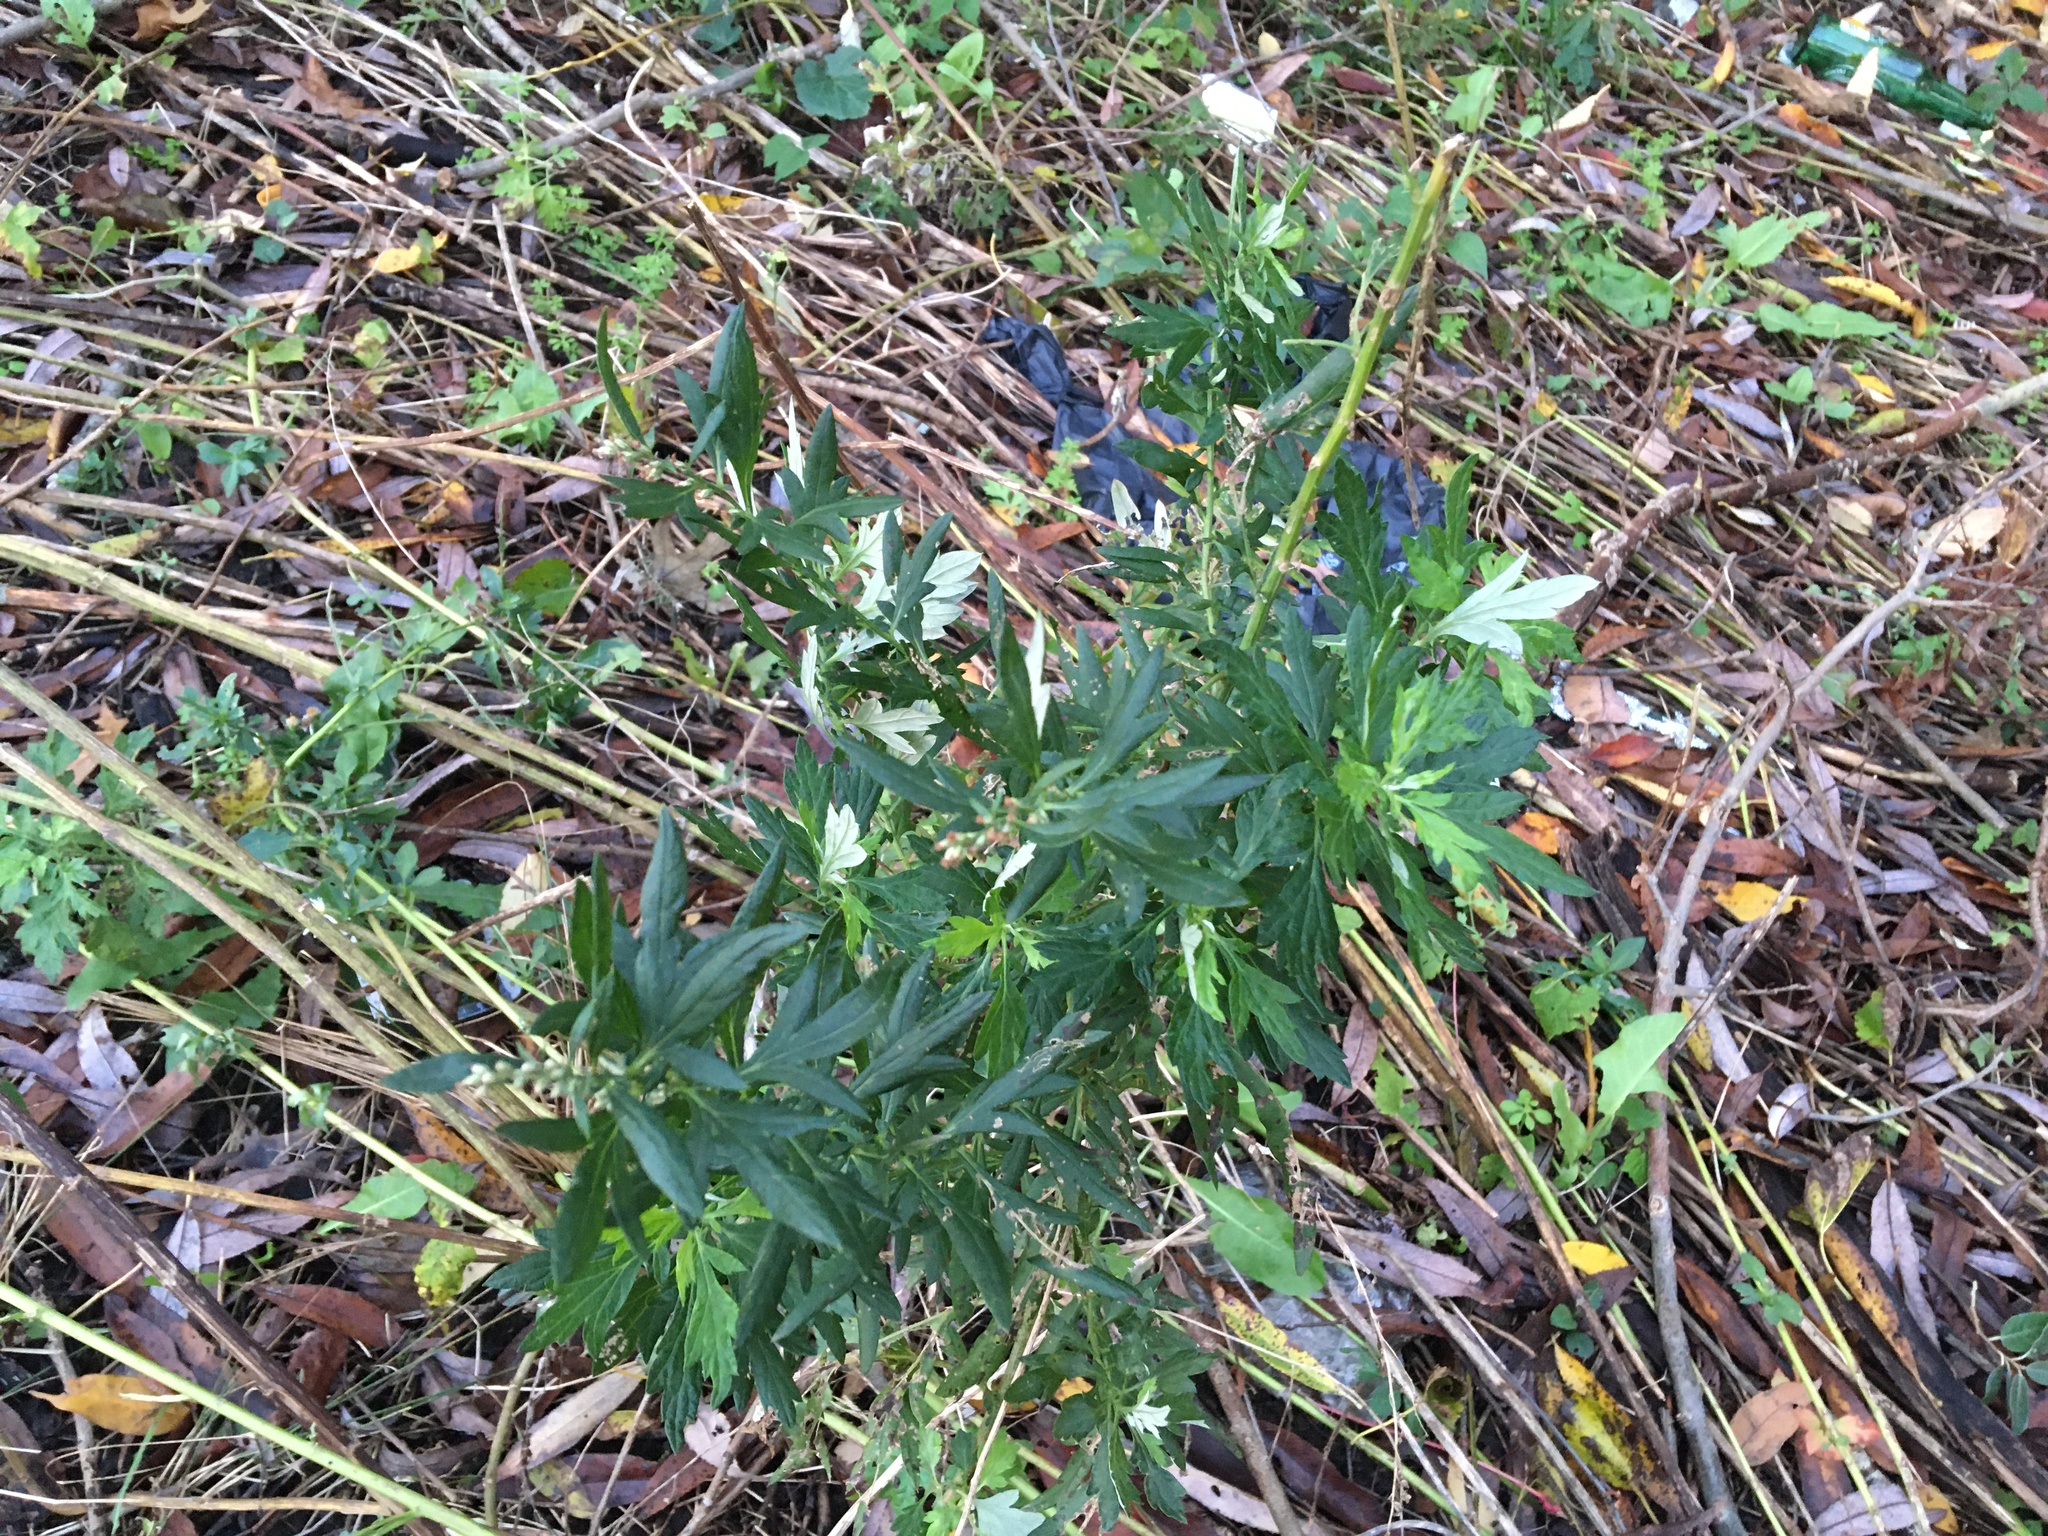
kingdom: Plantae
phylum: Tracheophyta
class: Magnoliopsida
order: Asterales
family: Asteraceae
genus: Artemisia
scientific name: Artemisia vulgaris
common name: Mugwort
